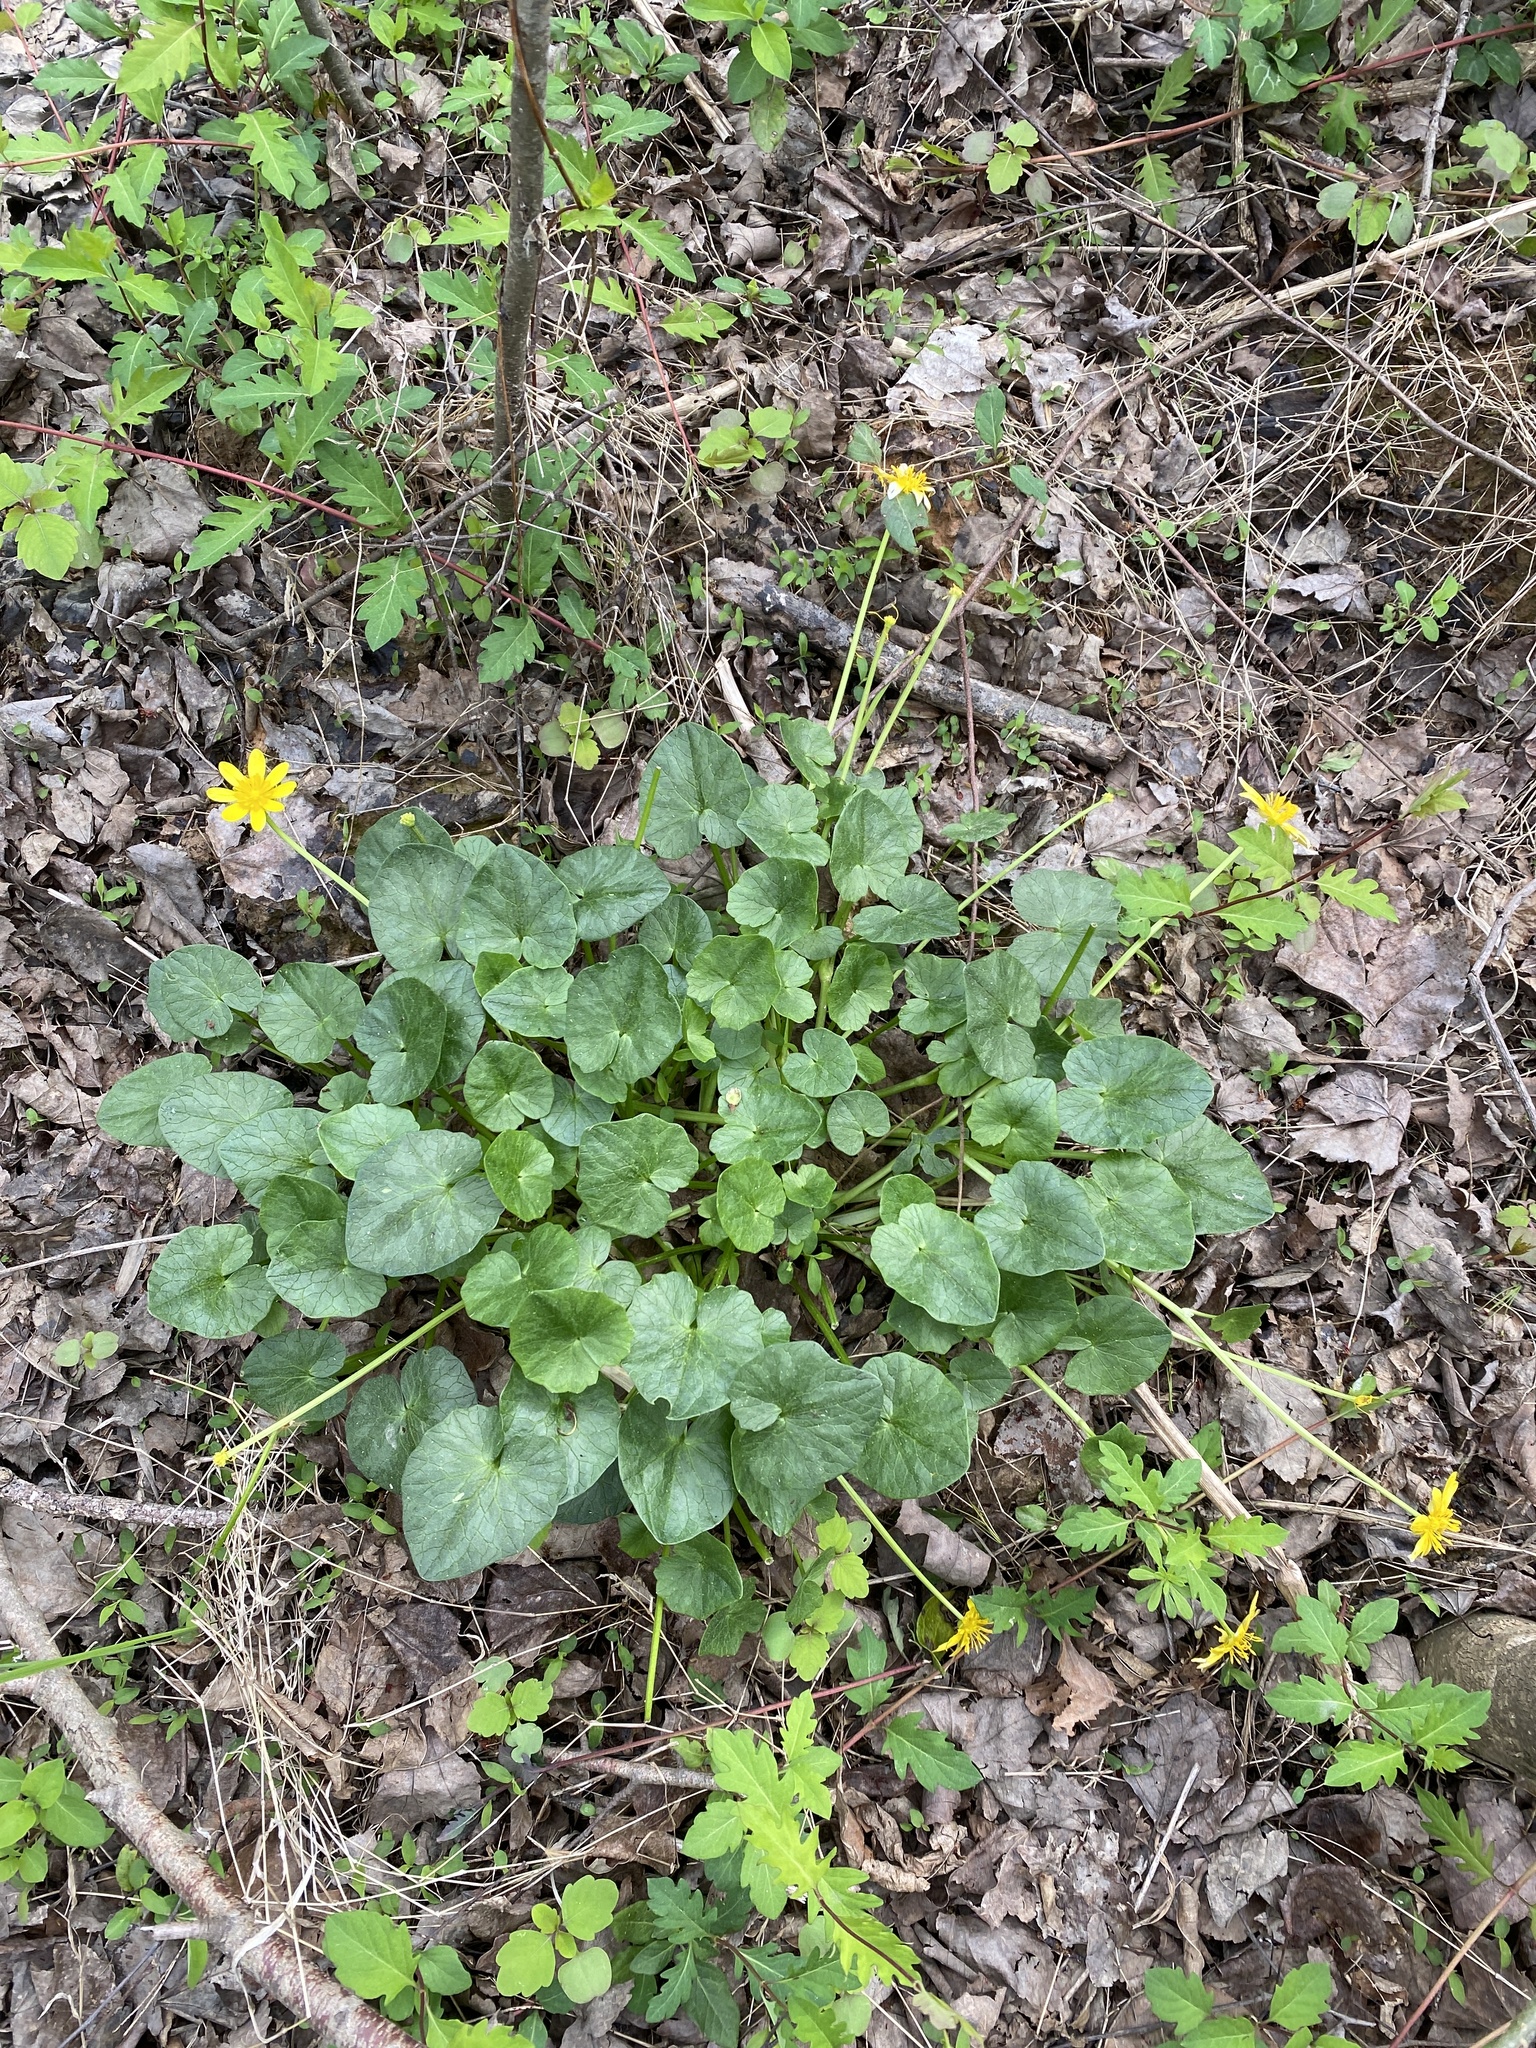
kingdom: Plantae
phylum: Tracheophyta
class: Magnoliopsida
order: Ranunculales
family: Ranunculaceae
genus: Ficaria
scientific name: Ficaria verna
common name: Lesser celandine
